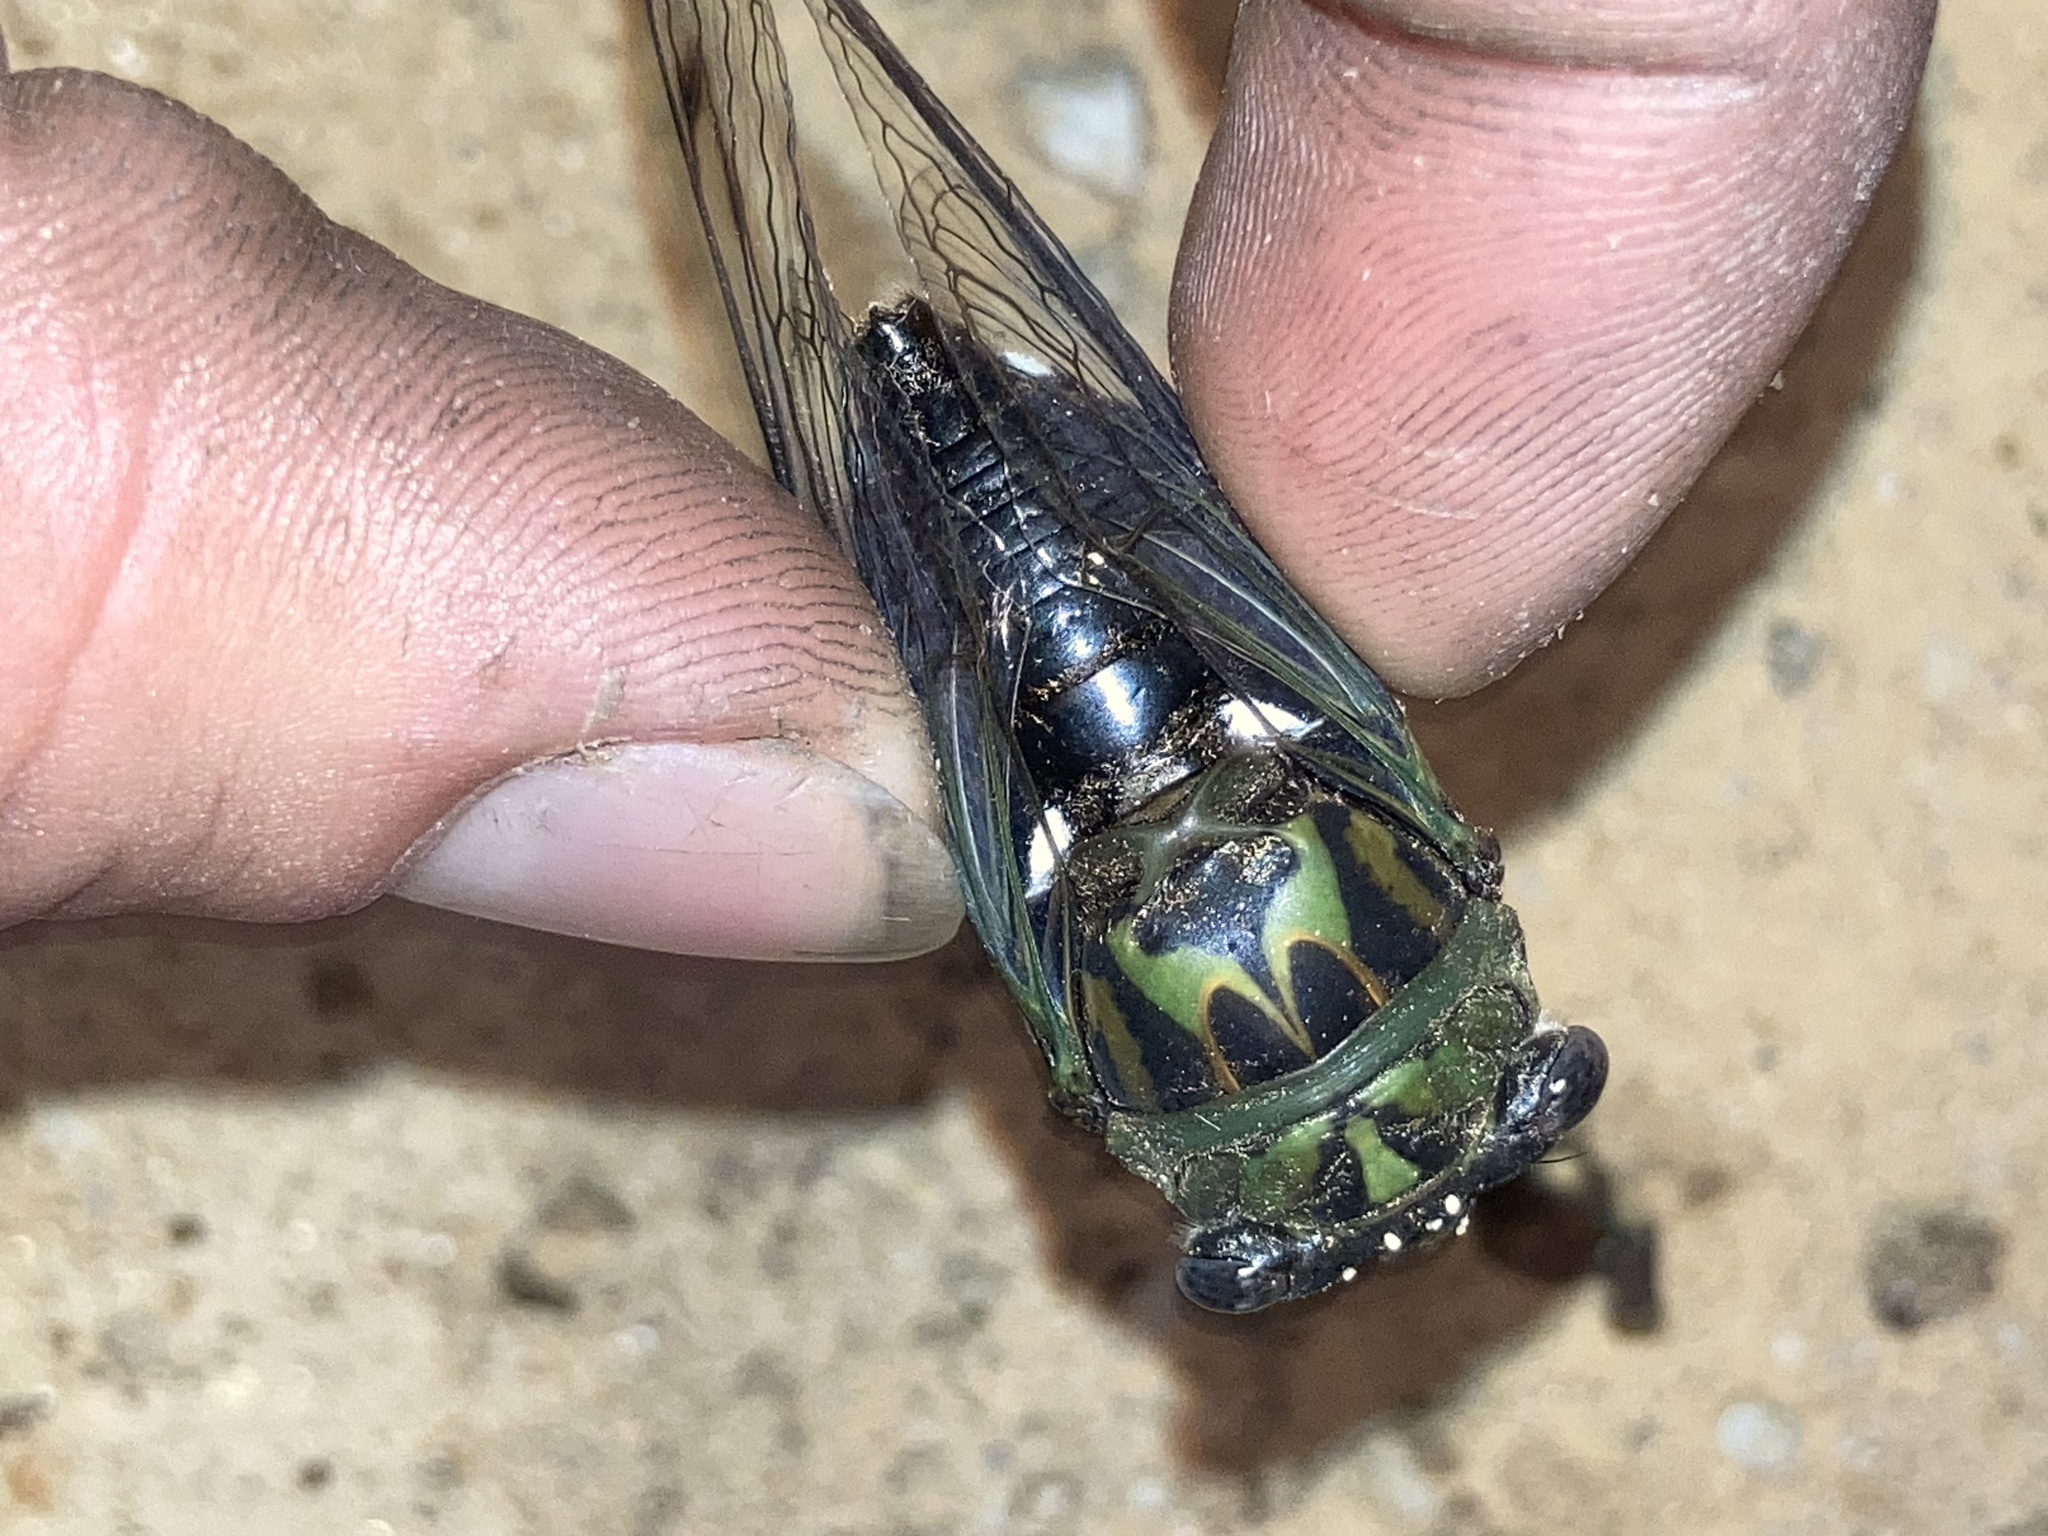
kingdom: Animalia
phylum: Arthropoda
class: Insecta
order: Hemiptera
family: Cicadidae
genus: Neotibicen
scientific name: Neotibicen pruinosus
